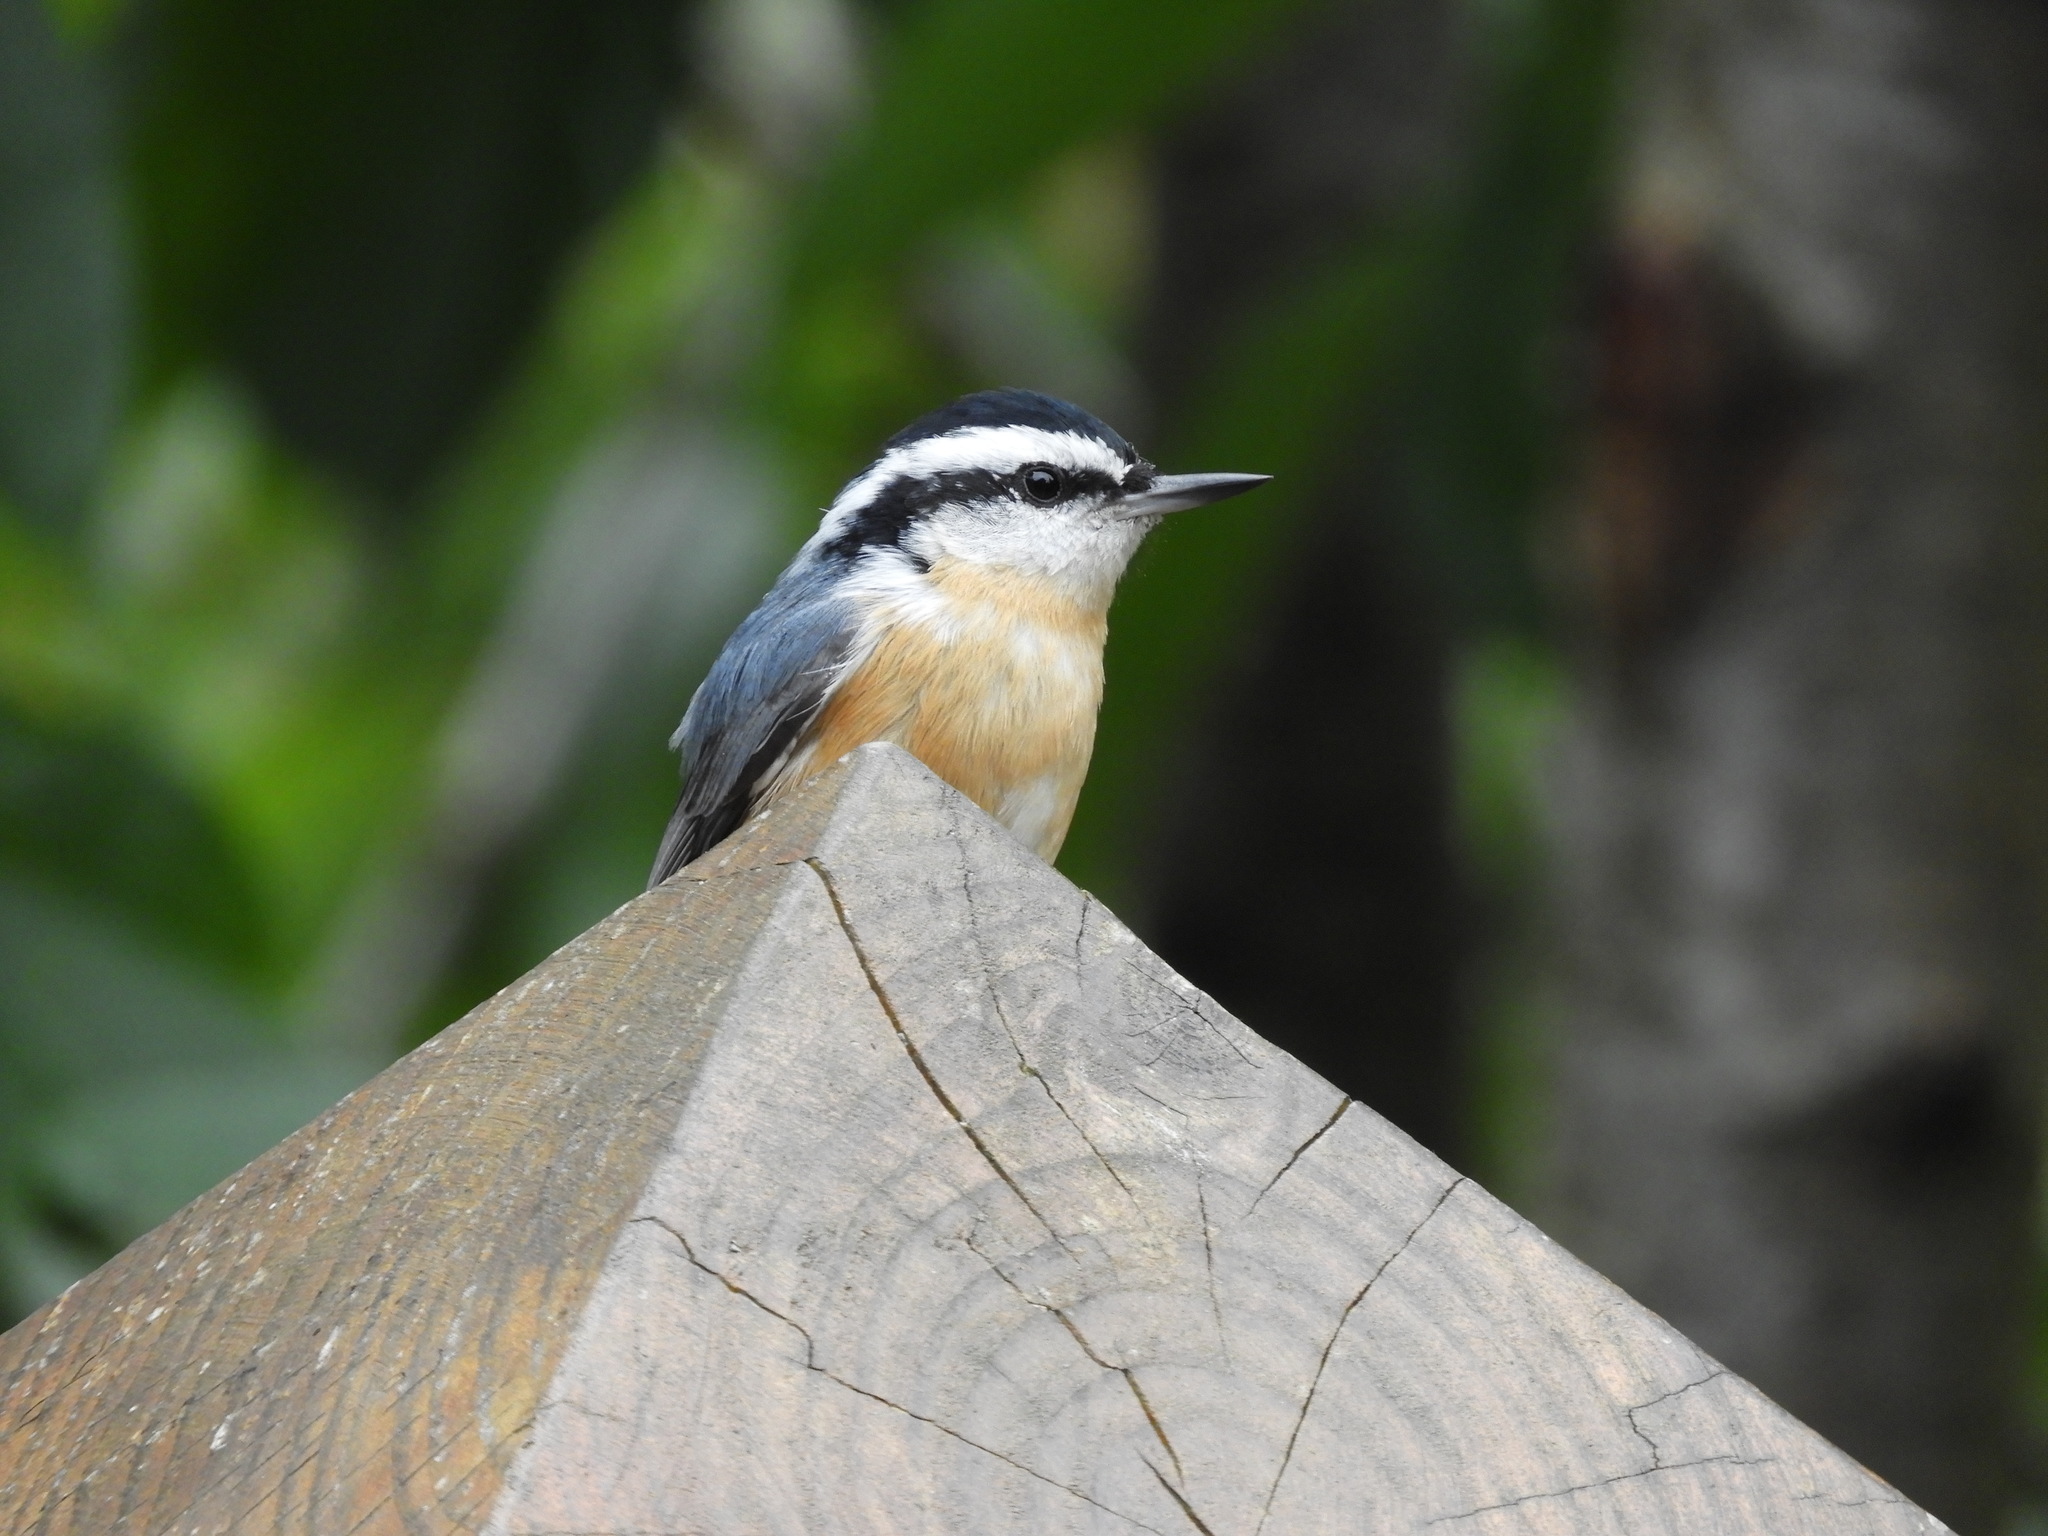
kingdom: Animalia
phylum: Chordata
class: Aves
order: Passeriformes
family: Sittidae
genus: Sitta
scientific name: Sitta canadensis
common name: Red-breasted nuthatch
